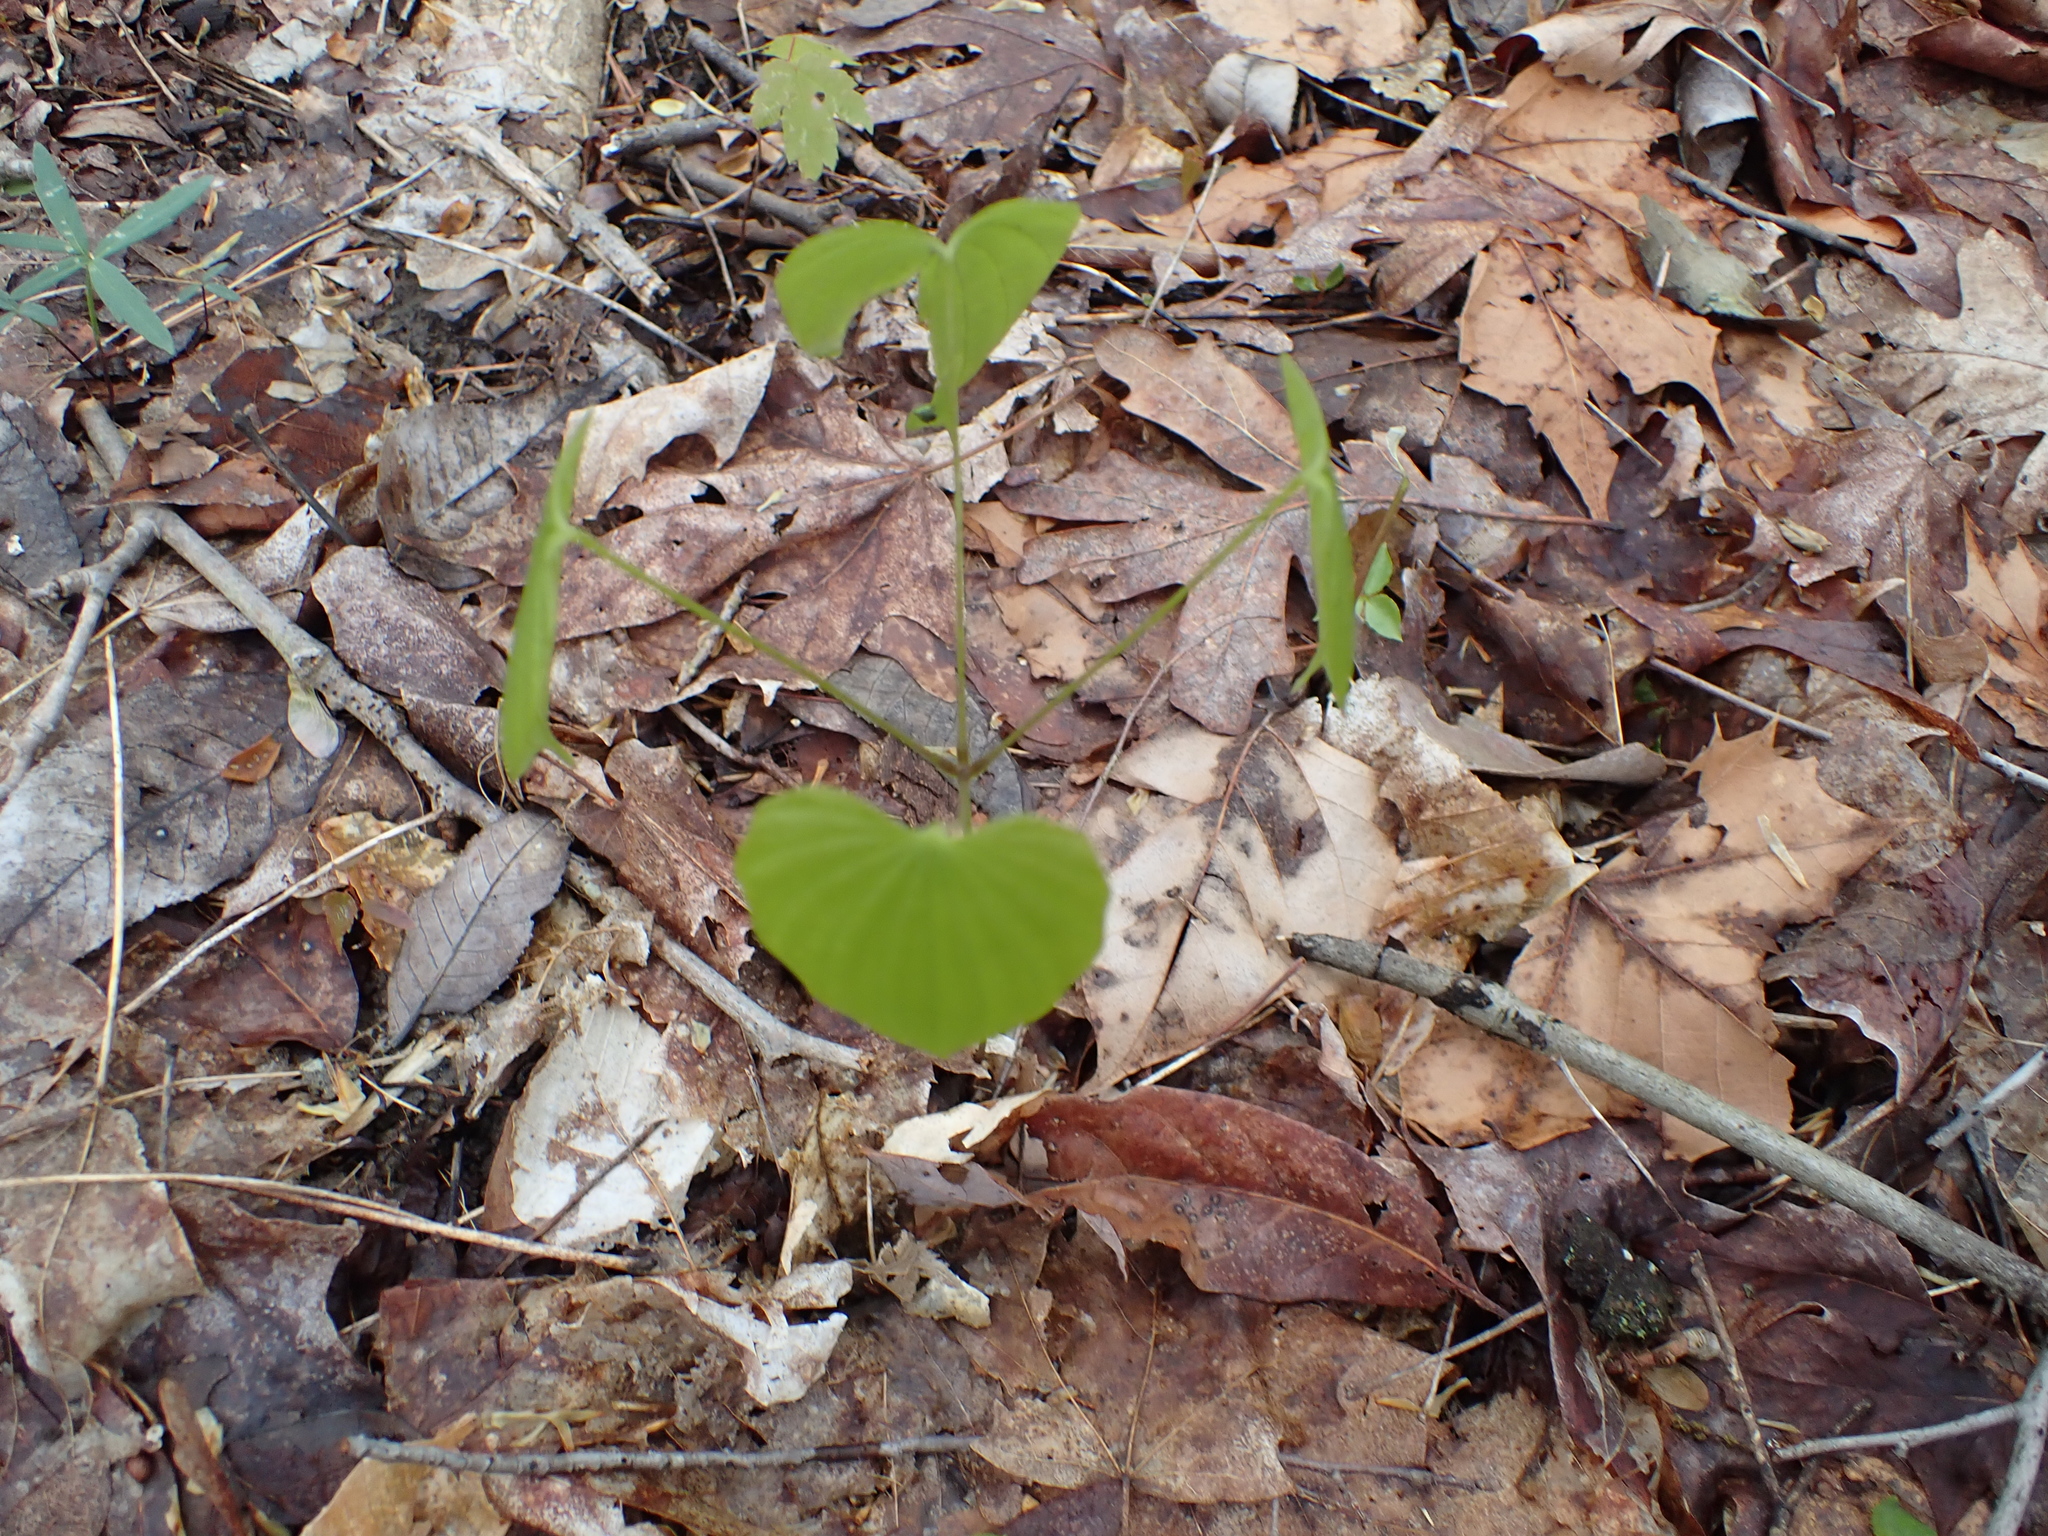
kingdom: Plantae
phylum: Tracheophyta
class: Liliopsida
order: Dioscoreales
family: Dioscoreaceae
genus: Dioscorea
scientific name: Dioscorea villosa
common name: Wild yam
